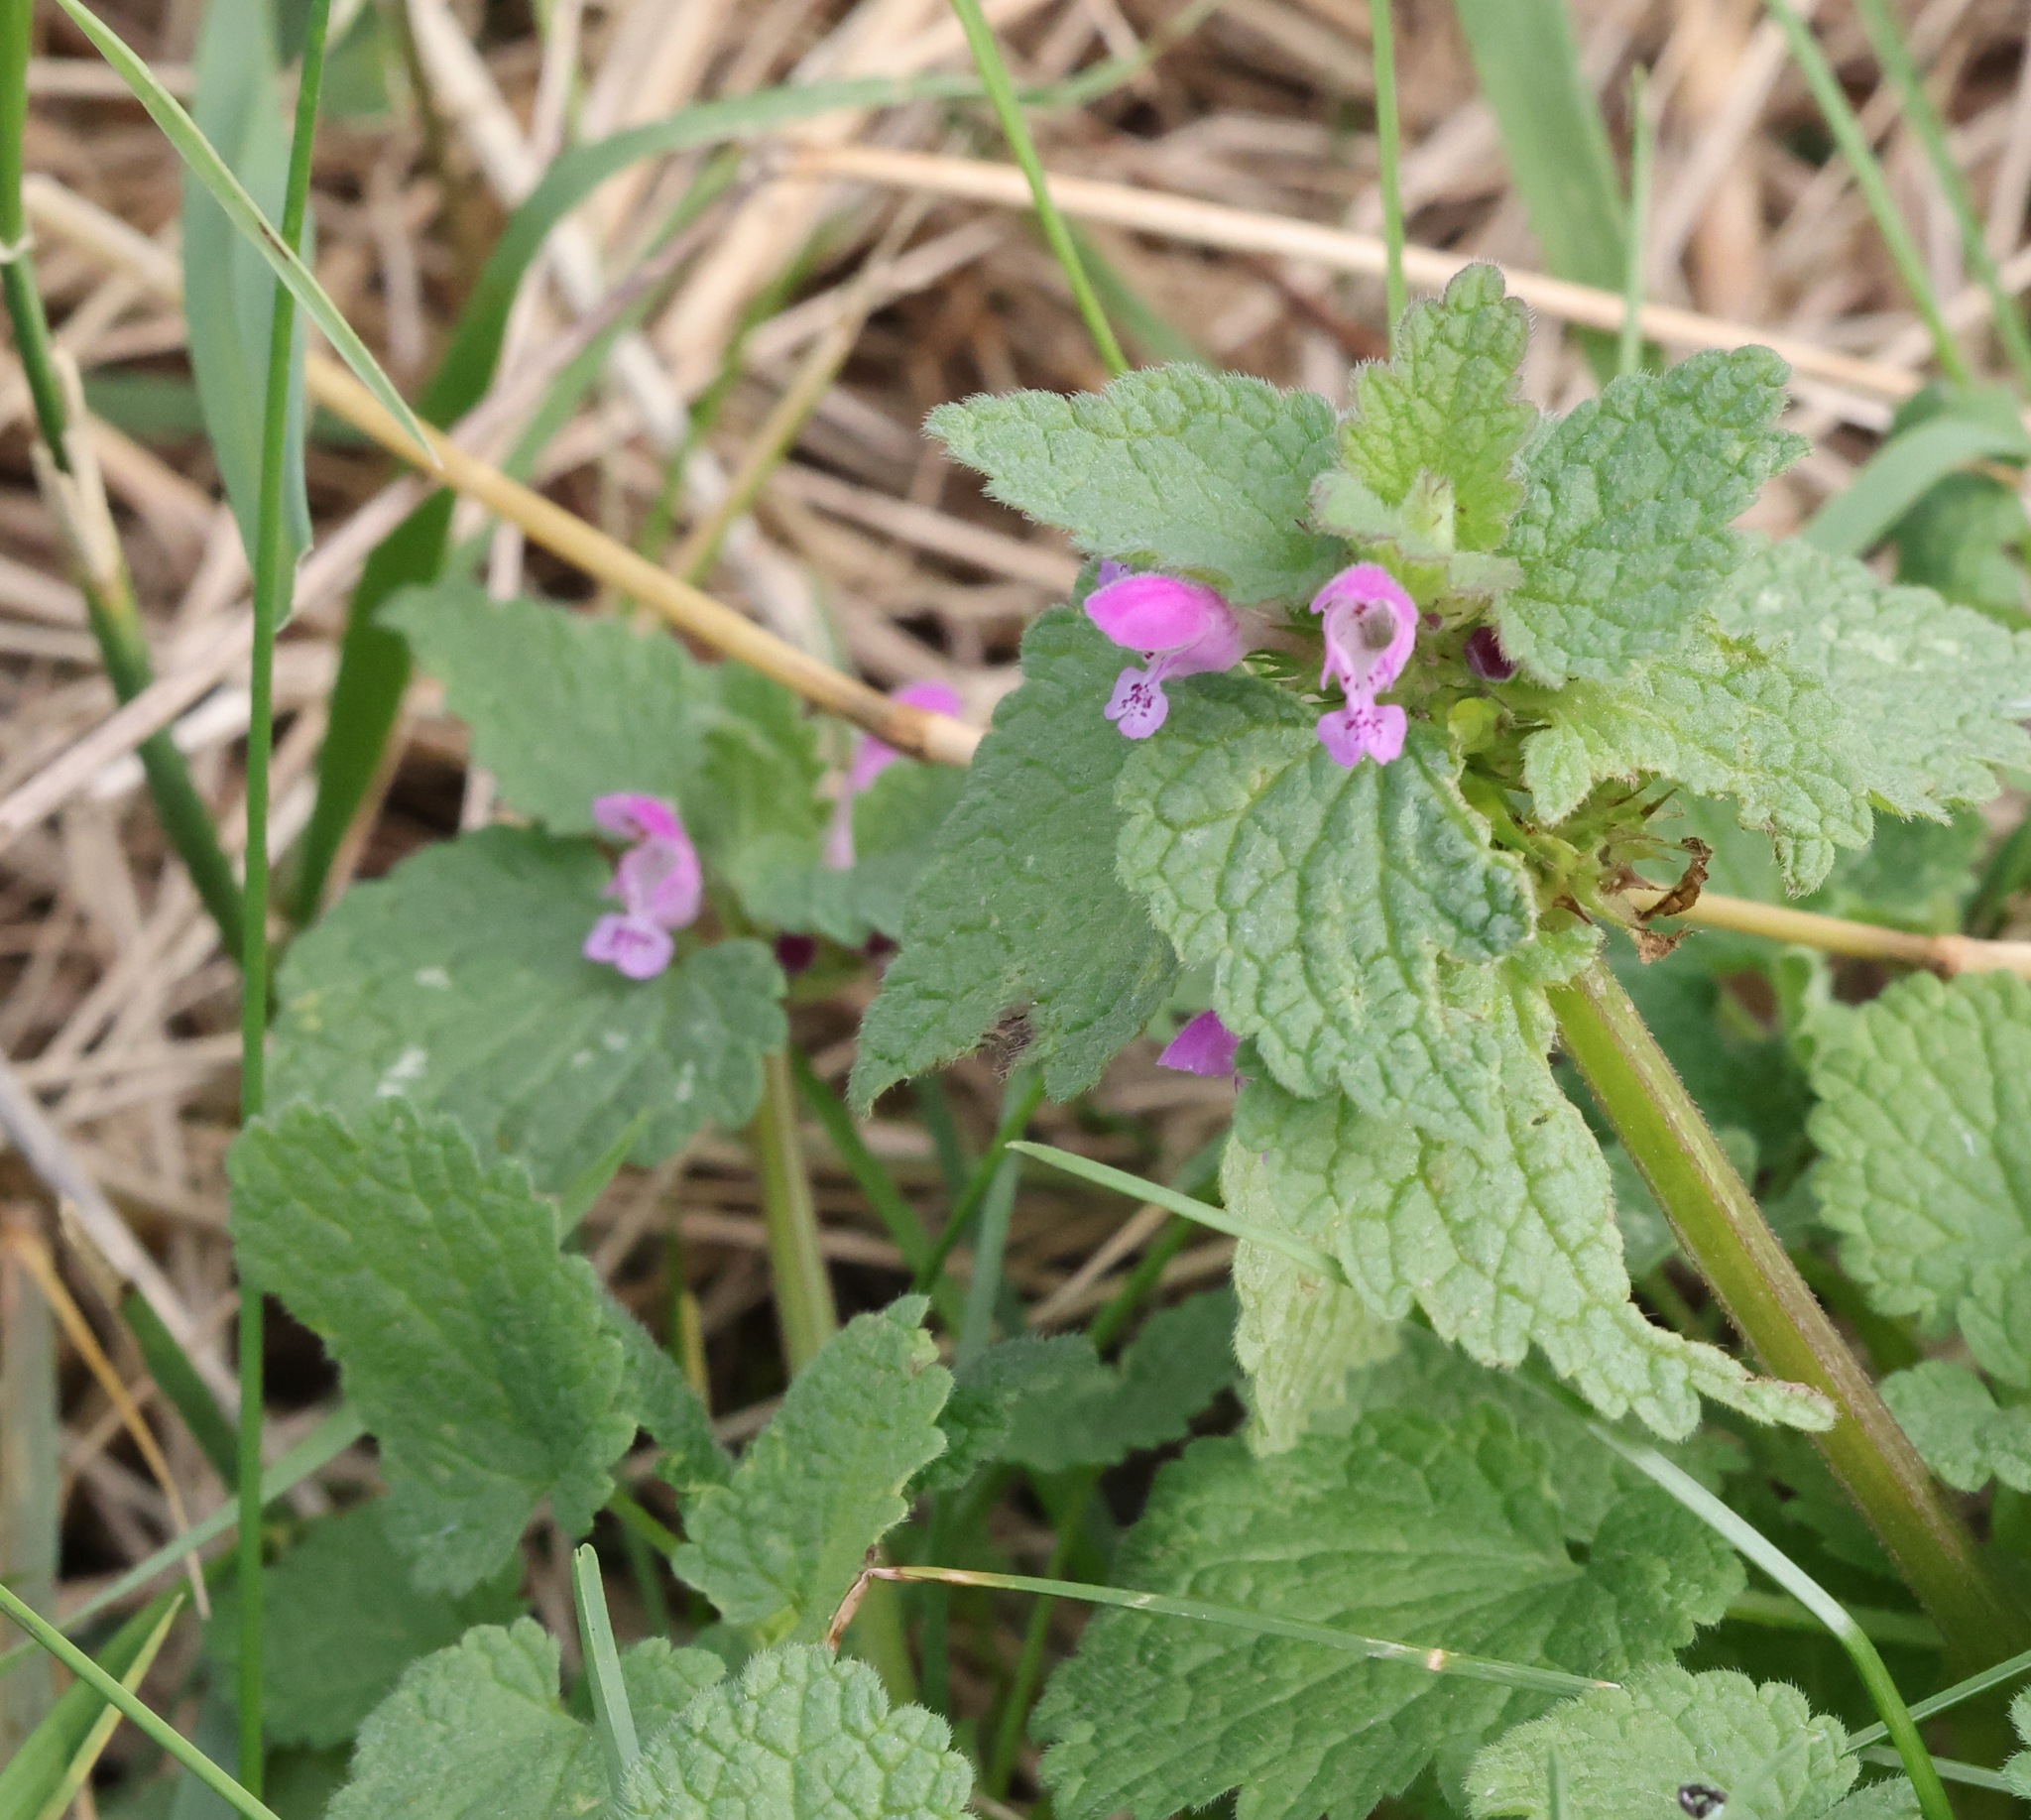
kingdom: Plantae
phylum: Tracheophyta
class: Magnoliopsida
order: Lamiales
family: Lamiaceae
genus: Lamium
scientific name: Lamium purpureum
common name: Red dead-nettle
